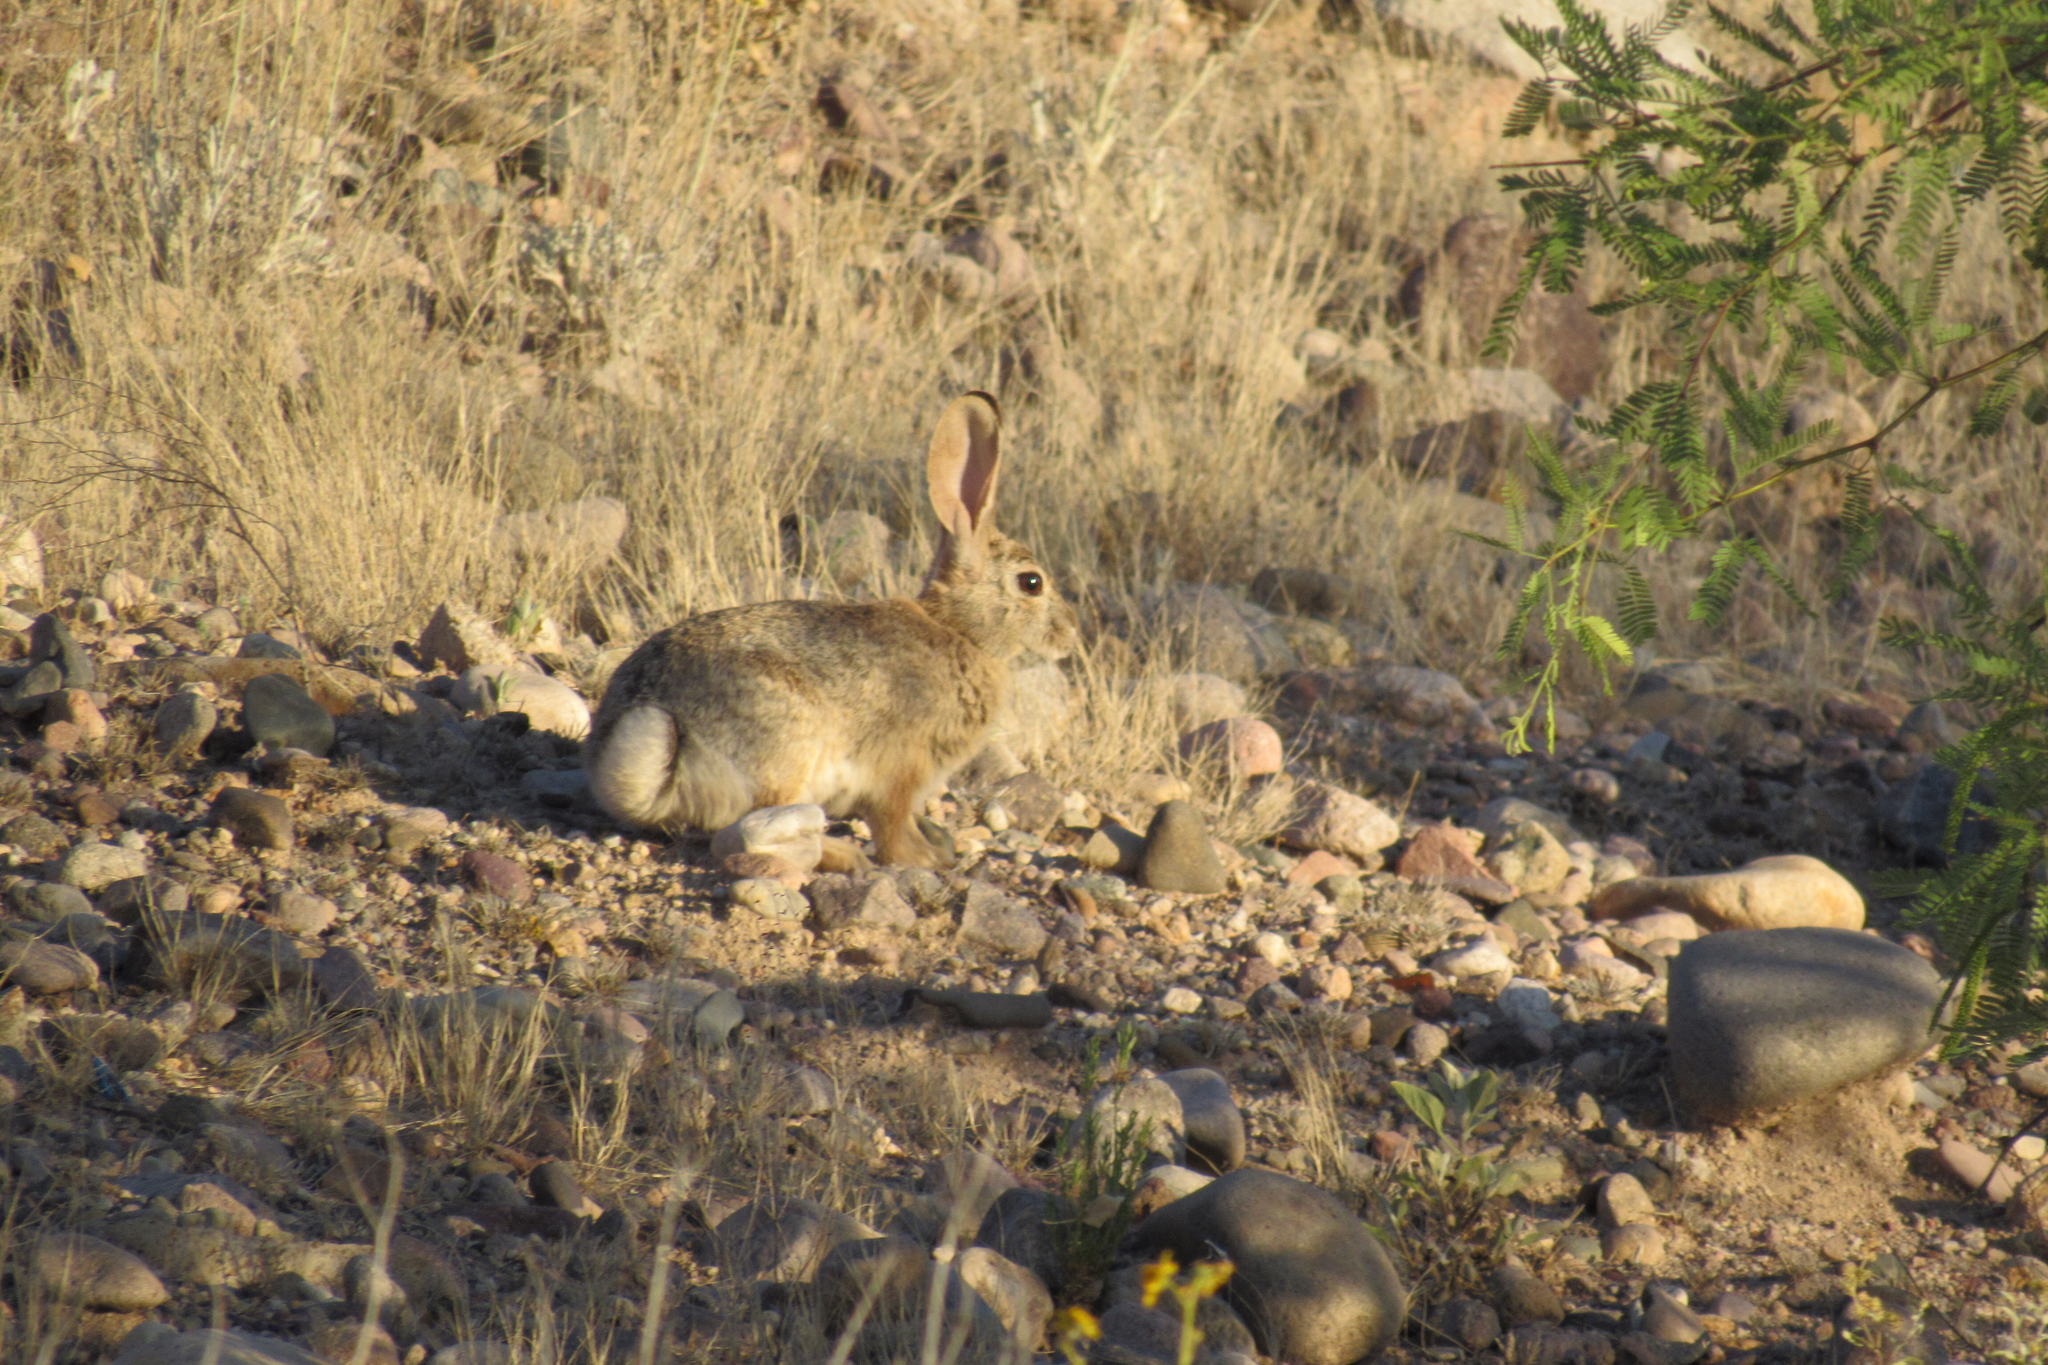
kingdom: Animalia
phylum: Chordata
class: Mammalia
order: Lagomorpha
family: Leporidae
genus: Sylvilagus
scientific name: Sylvilagus audubonii
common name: Desert cottontail
